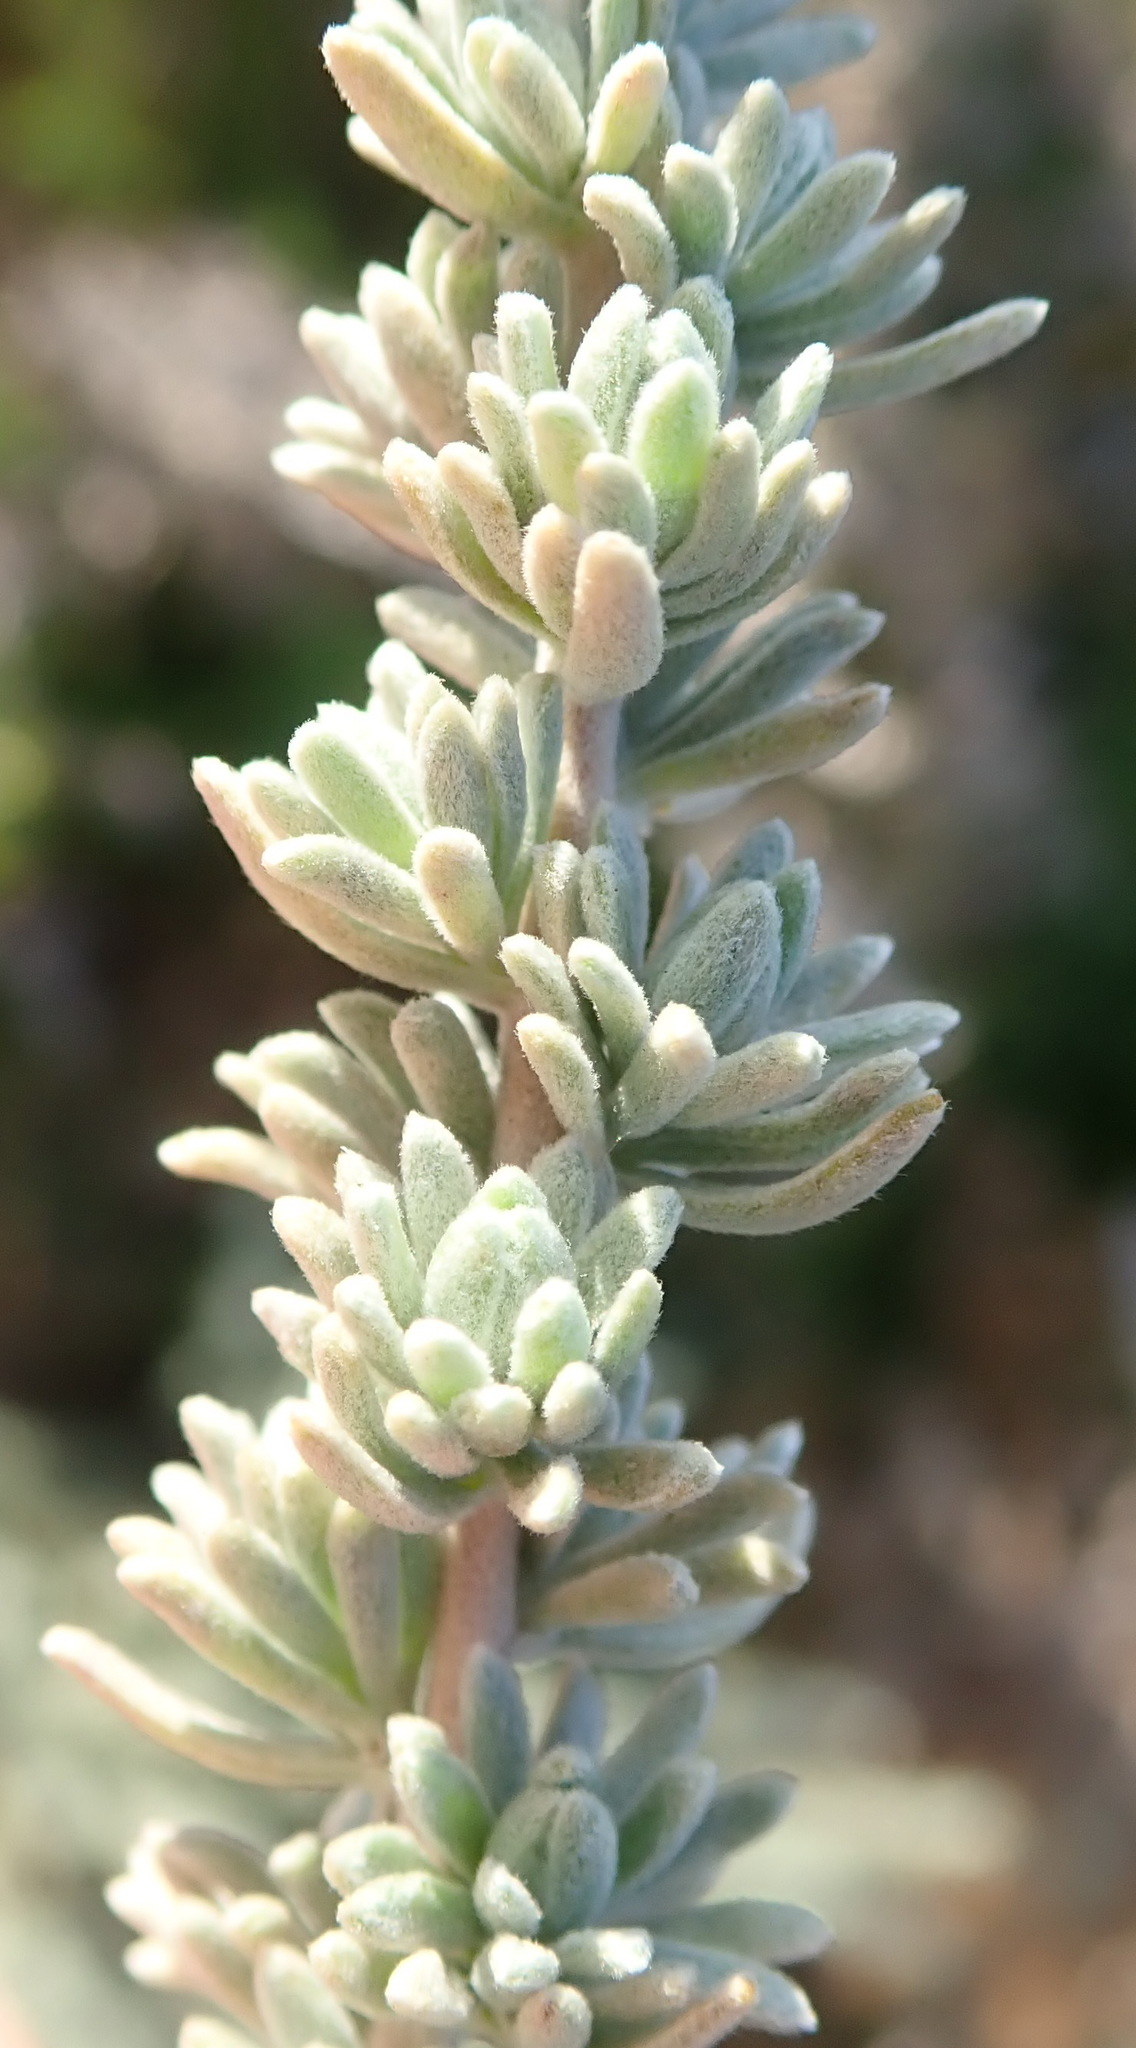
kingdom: Plantae
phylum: Tracheophyta
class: Magnoliopsida
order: Asterales
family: Asteraceae
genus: Eriocephalus
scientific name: Eriocephalus racemosus
